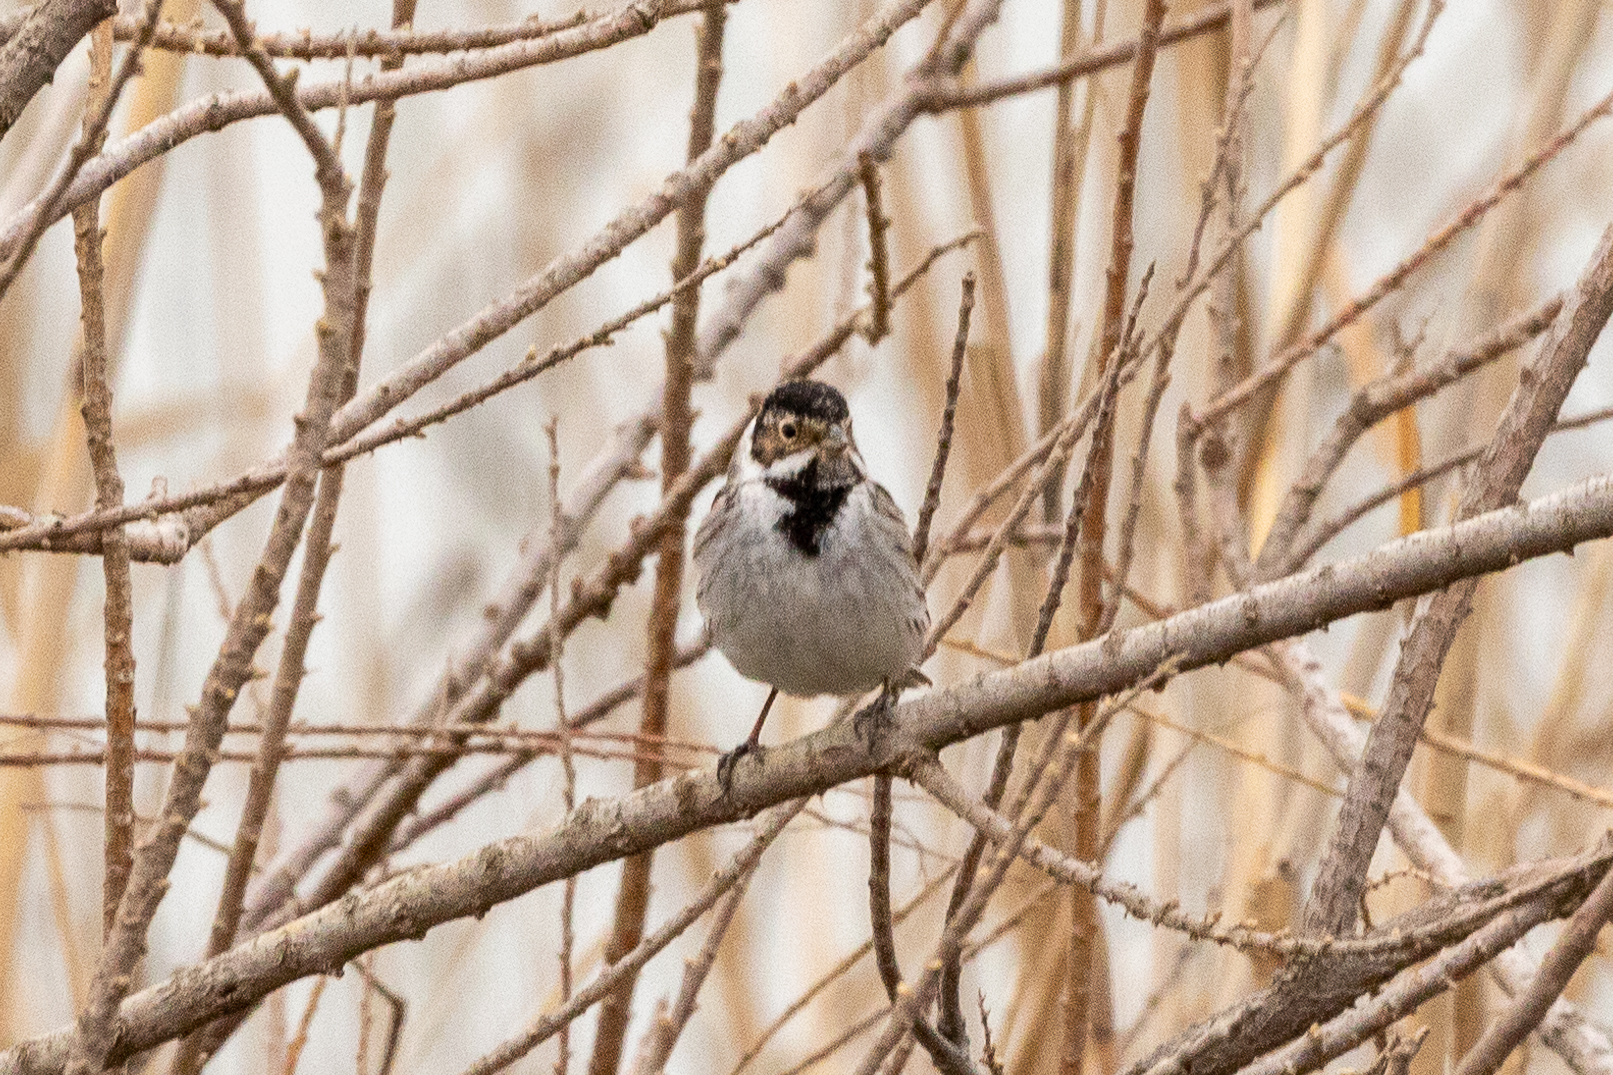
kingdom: Animalia
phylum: Chordata
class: Aves
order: Passeriformes
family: Emberizidae
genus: Emberiza
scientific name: Emberiza schoeniclus
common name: Reed bunting
